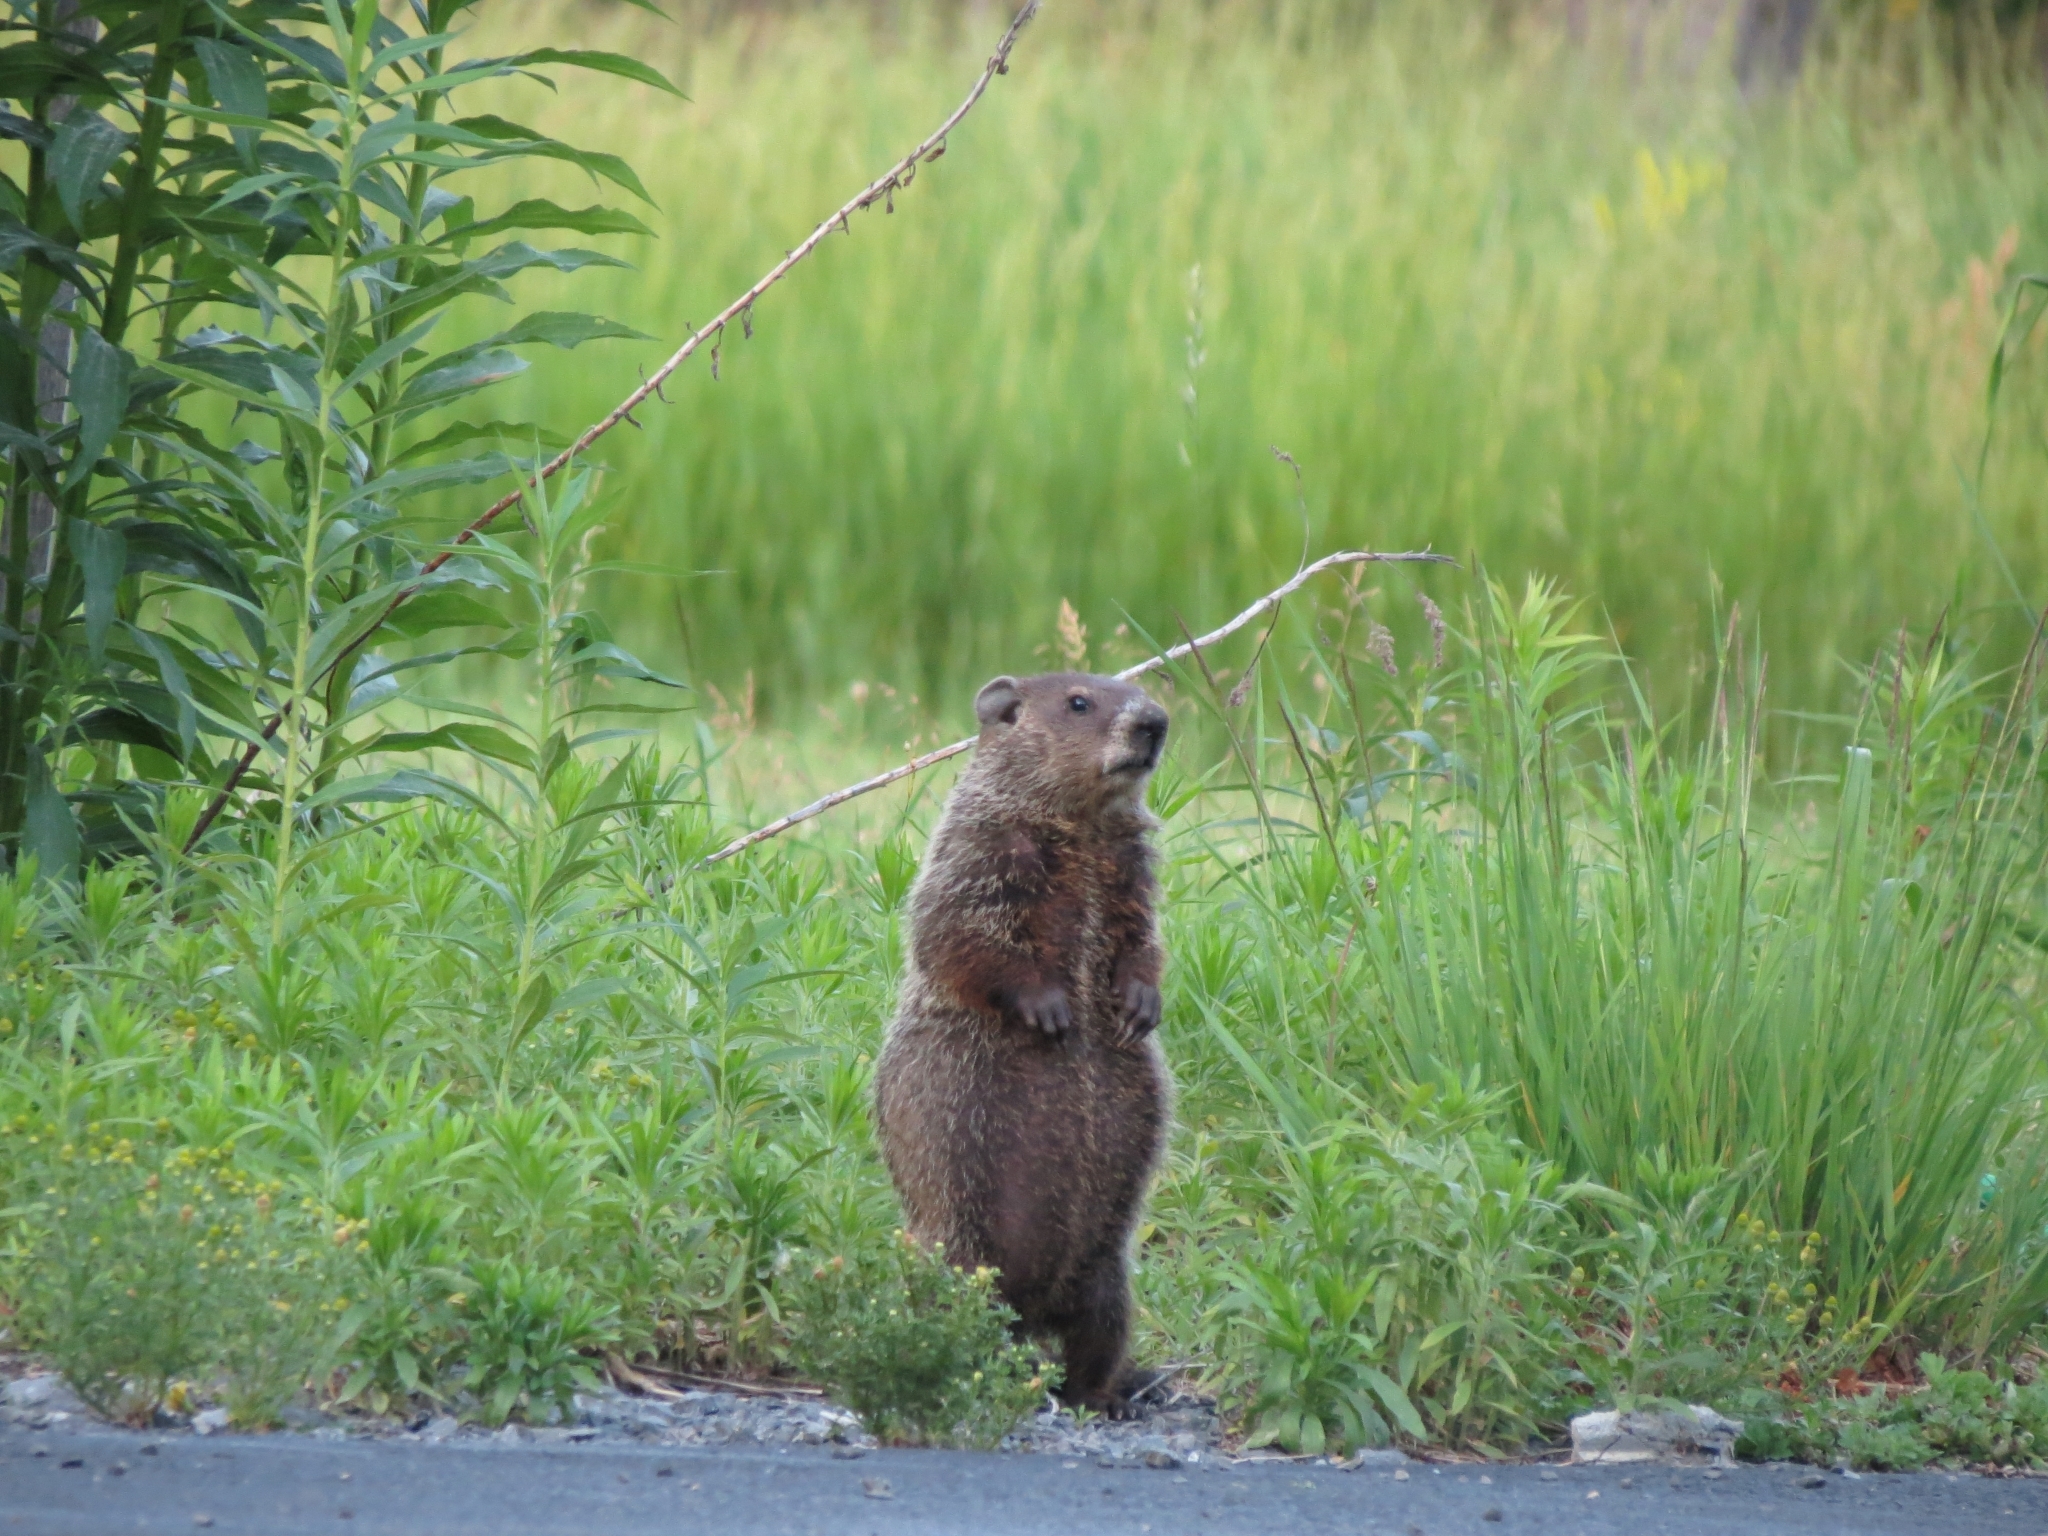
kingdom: Animalia
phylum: Chordata
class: Mammalia
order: Rodentia
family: Sciuridae
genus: Marmota
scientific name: Marmota monax
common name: Groundhog
